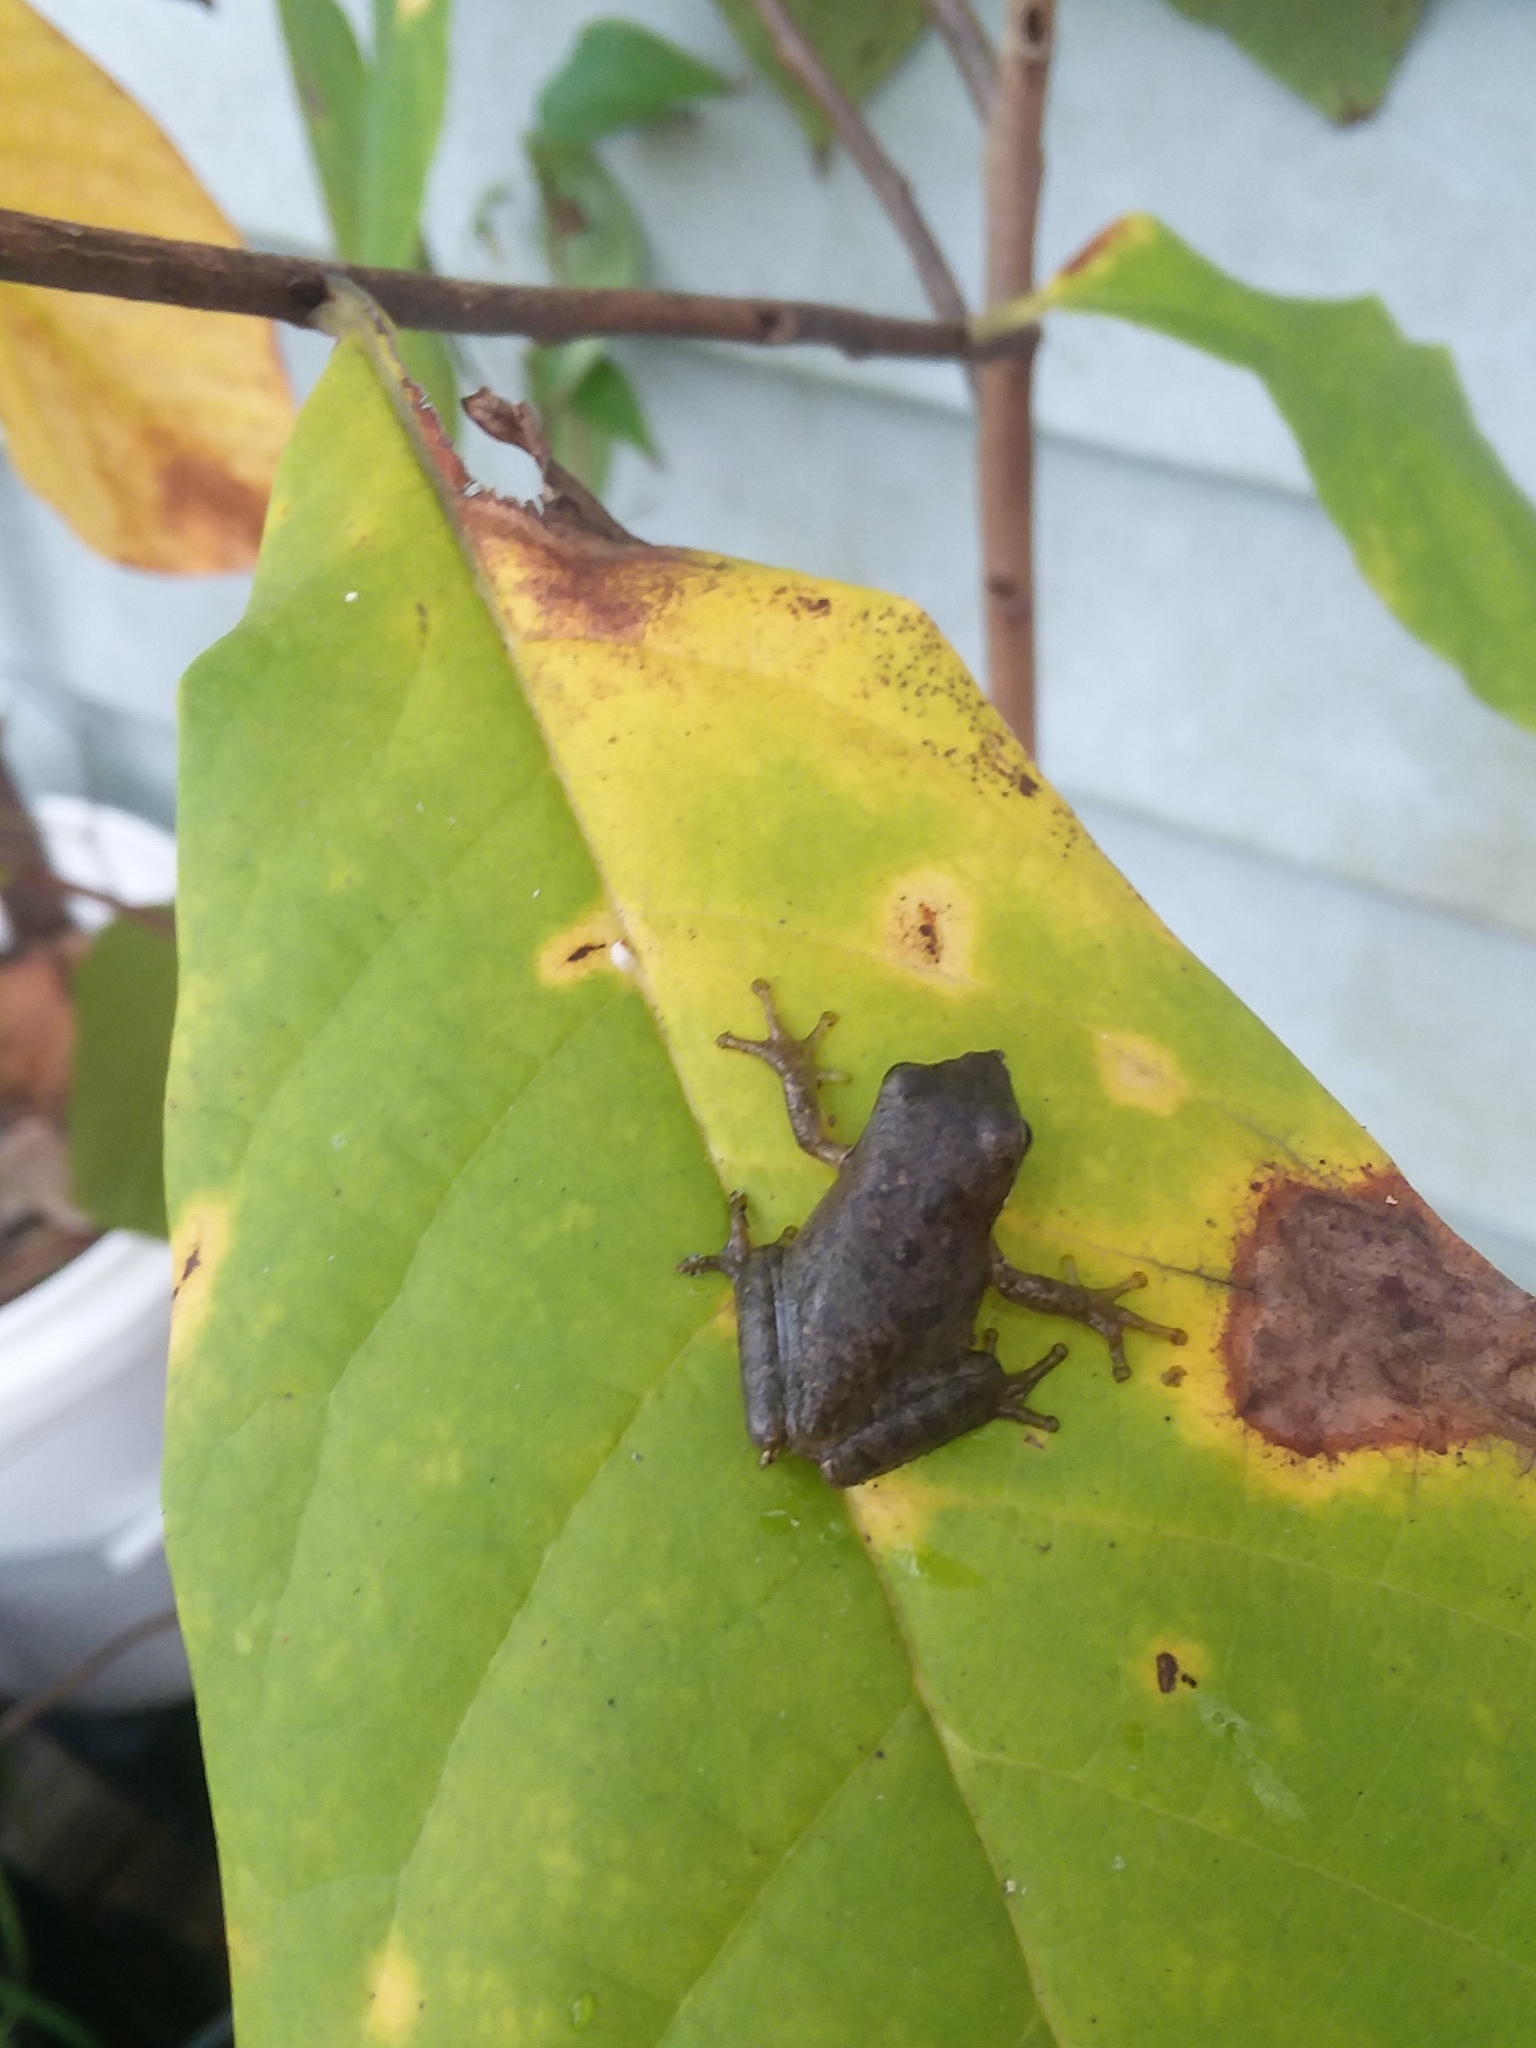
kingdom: Animalia
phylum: Chordata
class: Amphibia
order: Anura
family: Hylidae
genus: Dryophytes
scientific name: Dryophytes squirellus
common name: Squirrel treefrog
